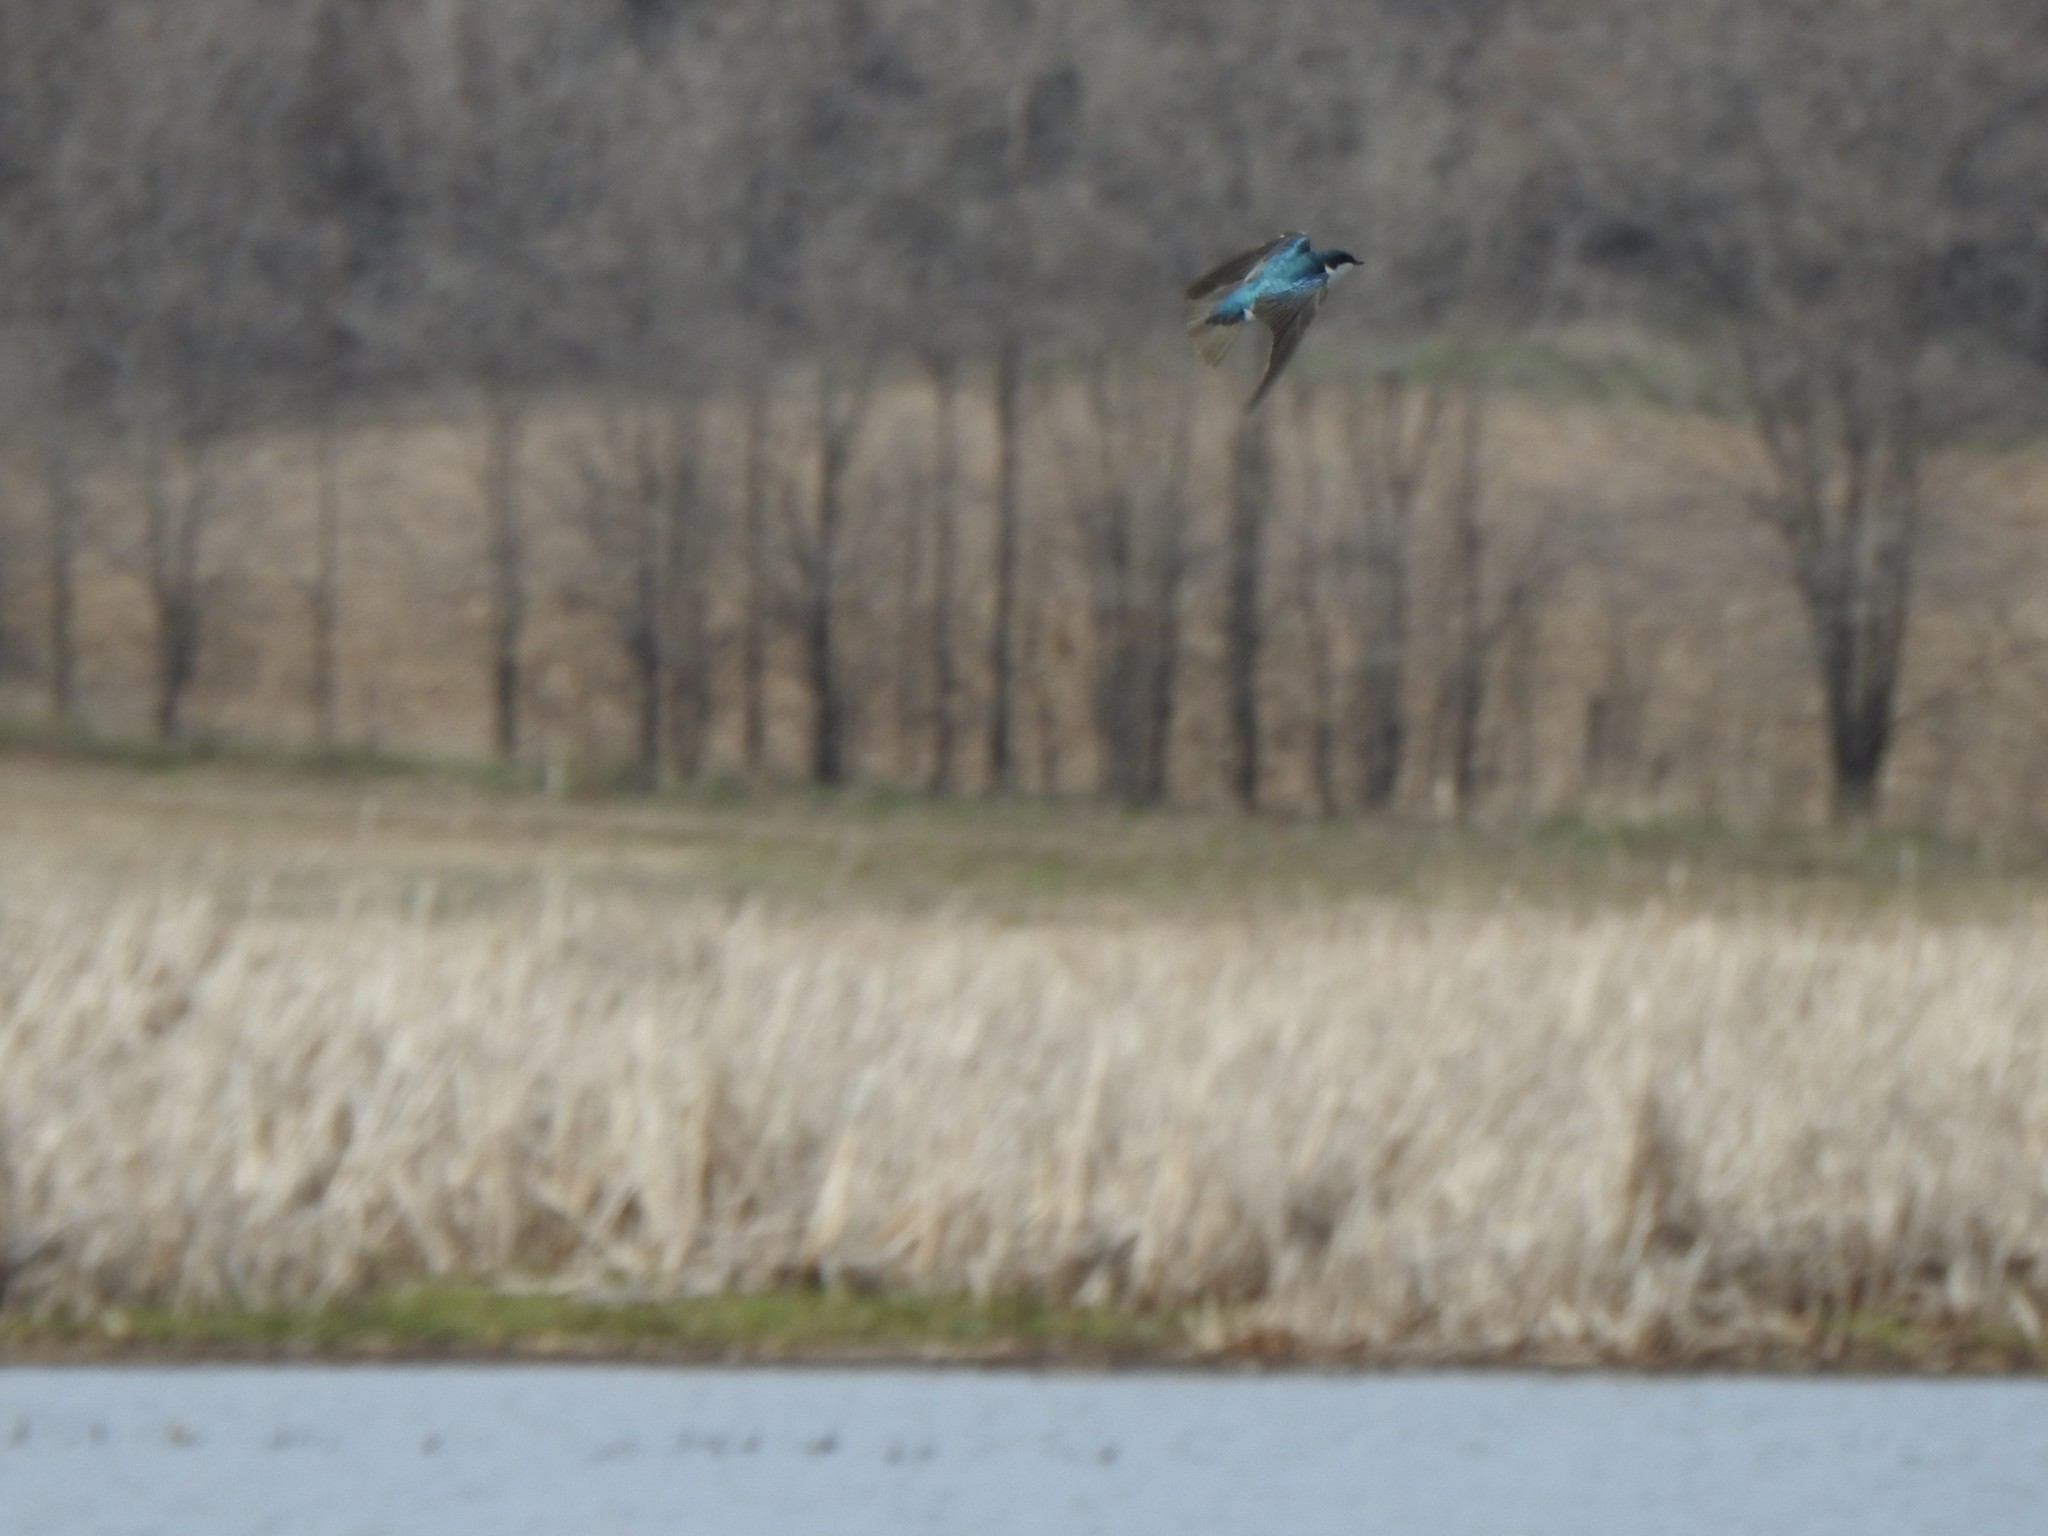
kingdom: Animalia
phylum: Chordata
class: Aves
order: Passeriformes
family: Hirundinidae
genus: Tachycineta
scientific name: Tachycineta bicolor
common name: Tree swallow
